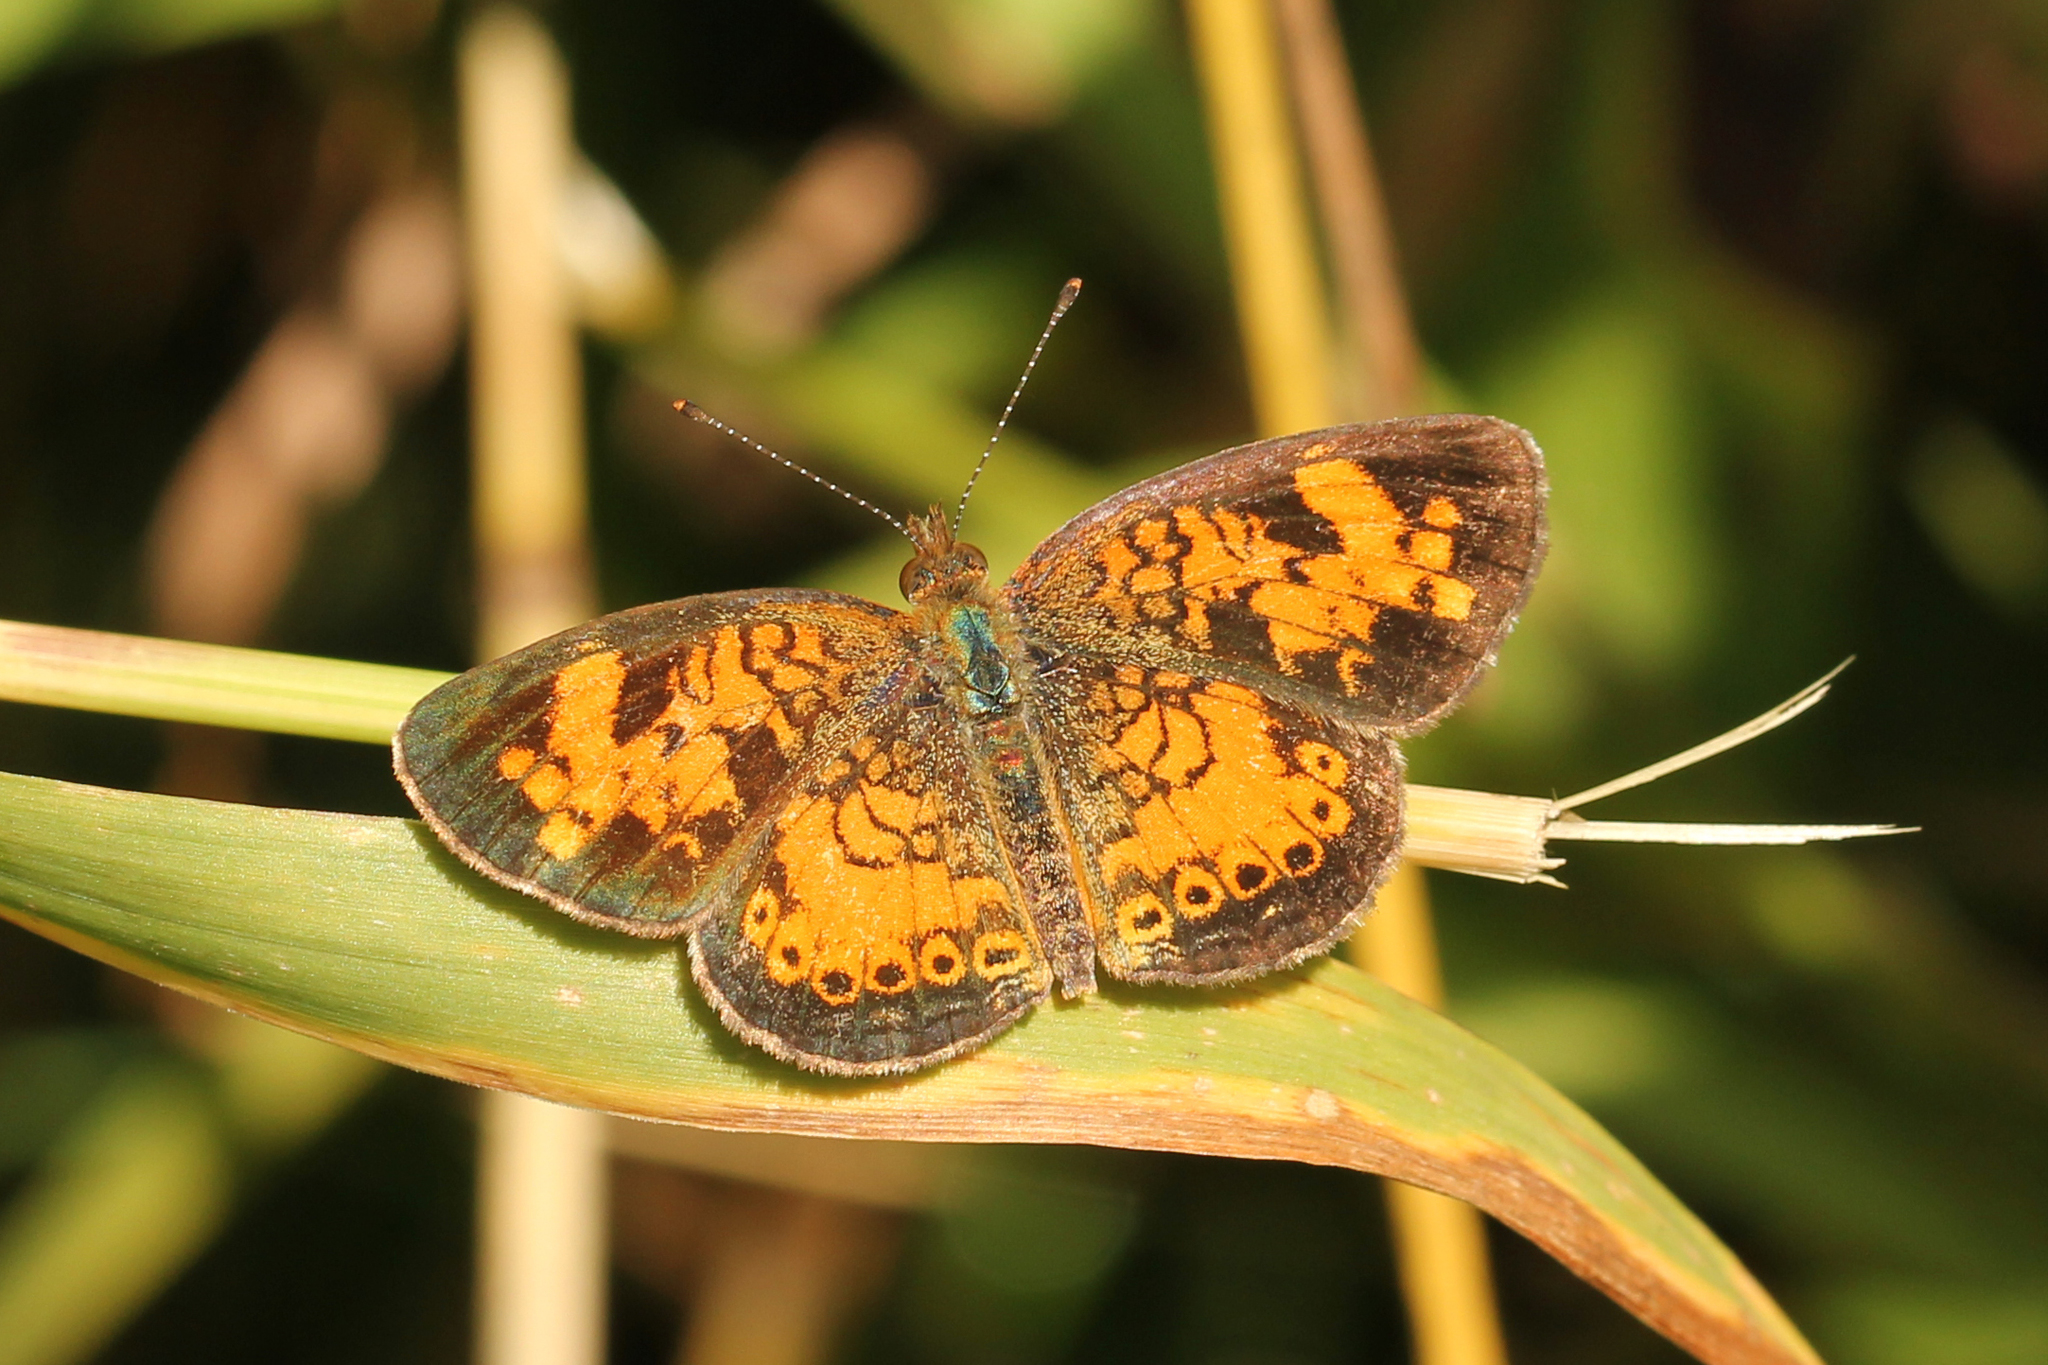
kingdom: Animalia
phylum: Arthropoda
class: Insecta
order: Lepidoptera
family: Nymphalidae
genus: Phyciodes
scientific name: Phyciodes tharos
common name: Pearl crescent
